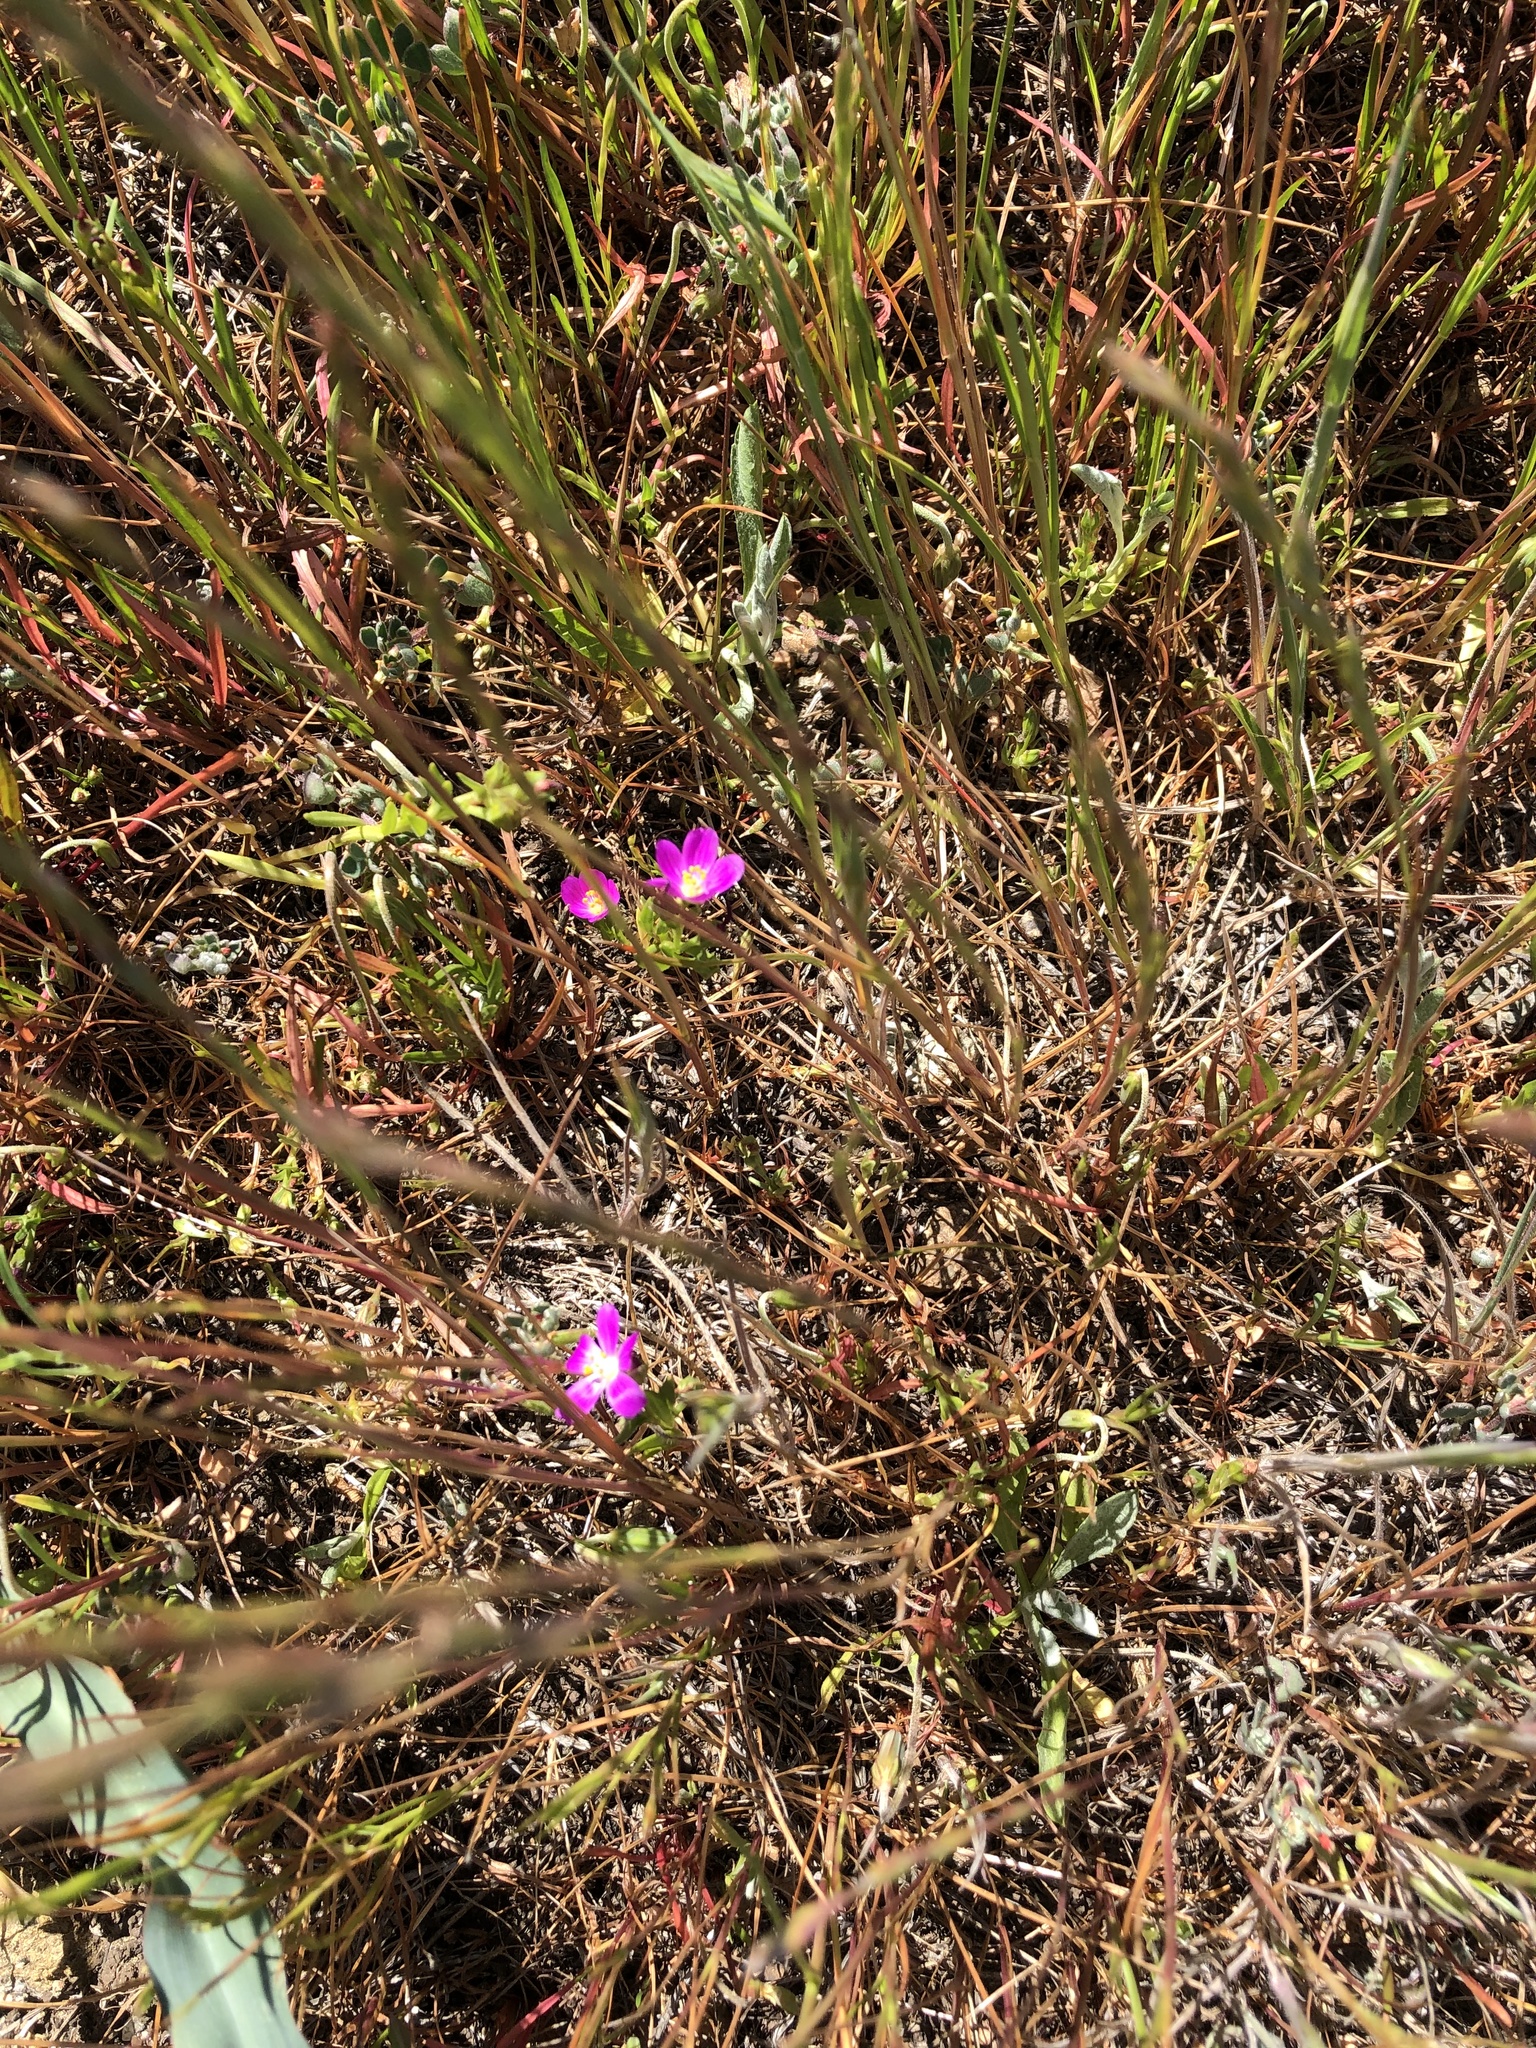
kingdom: Plantae
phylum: Tracheophyta
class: Magnoliopsida
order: Caryophyllales
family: Montiaceae
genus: Calandrinia
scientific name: Calandrinia menziesii
